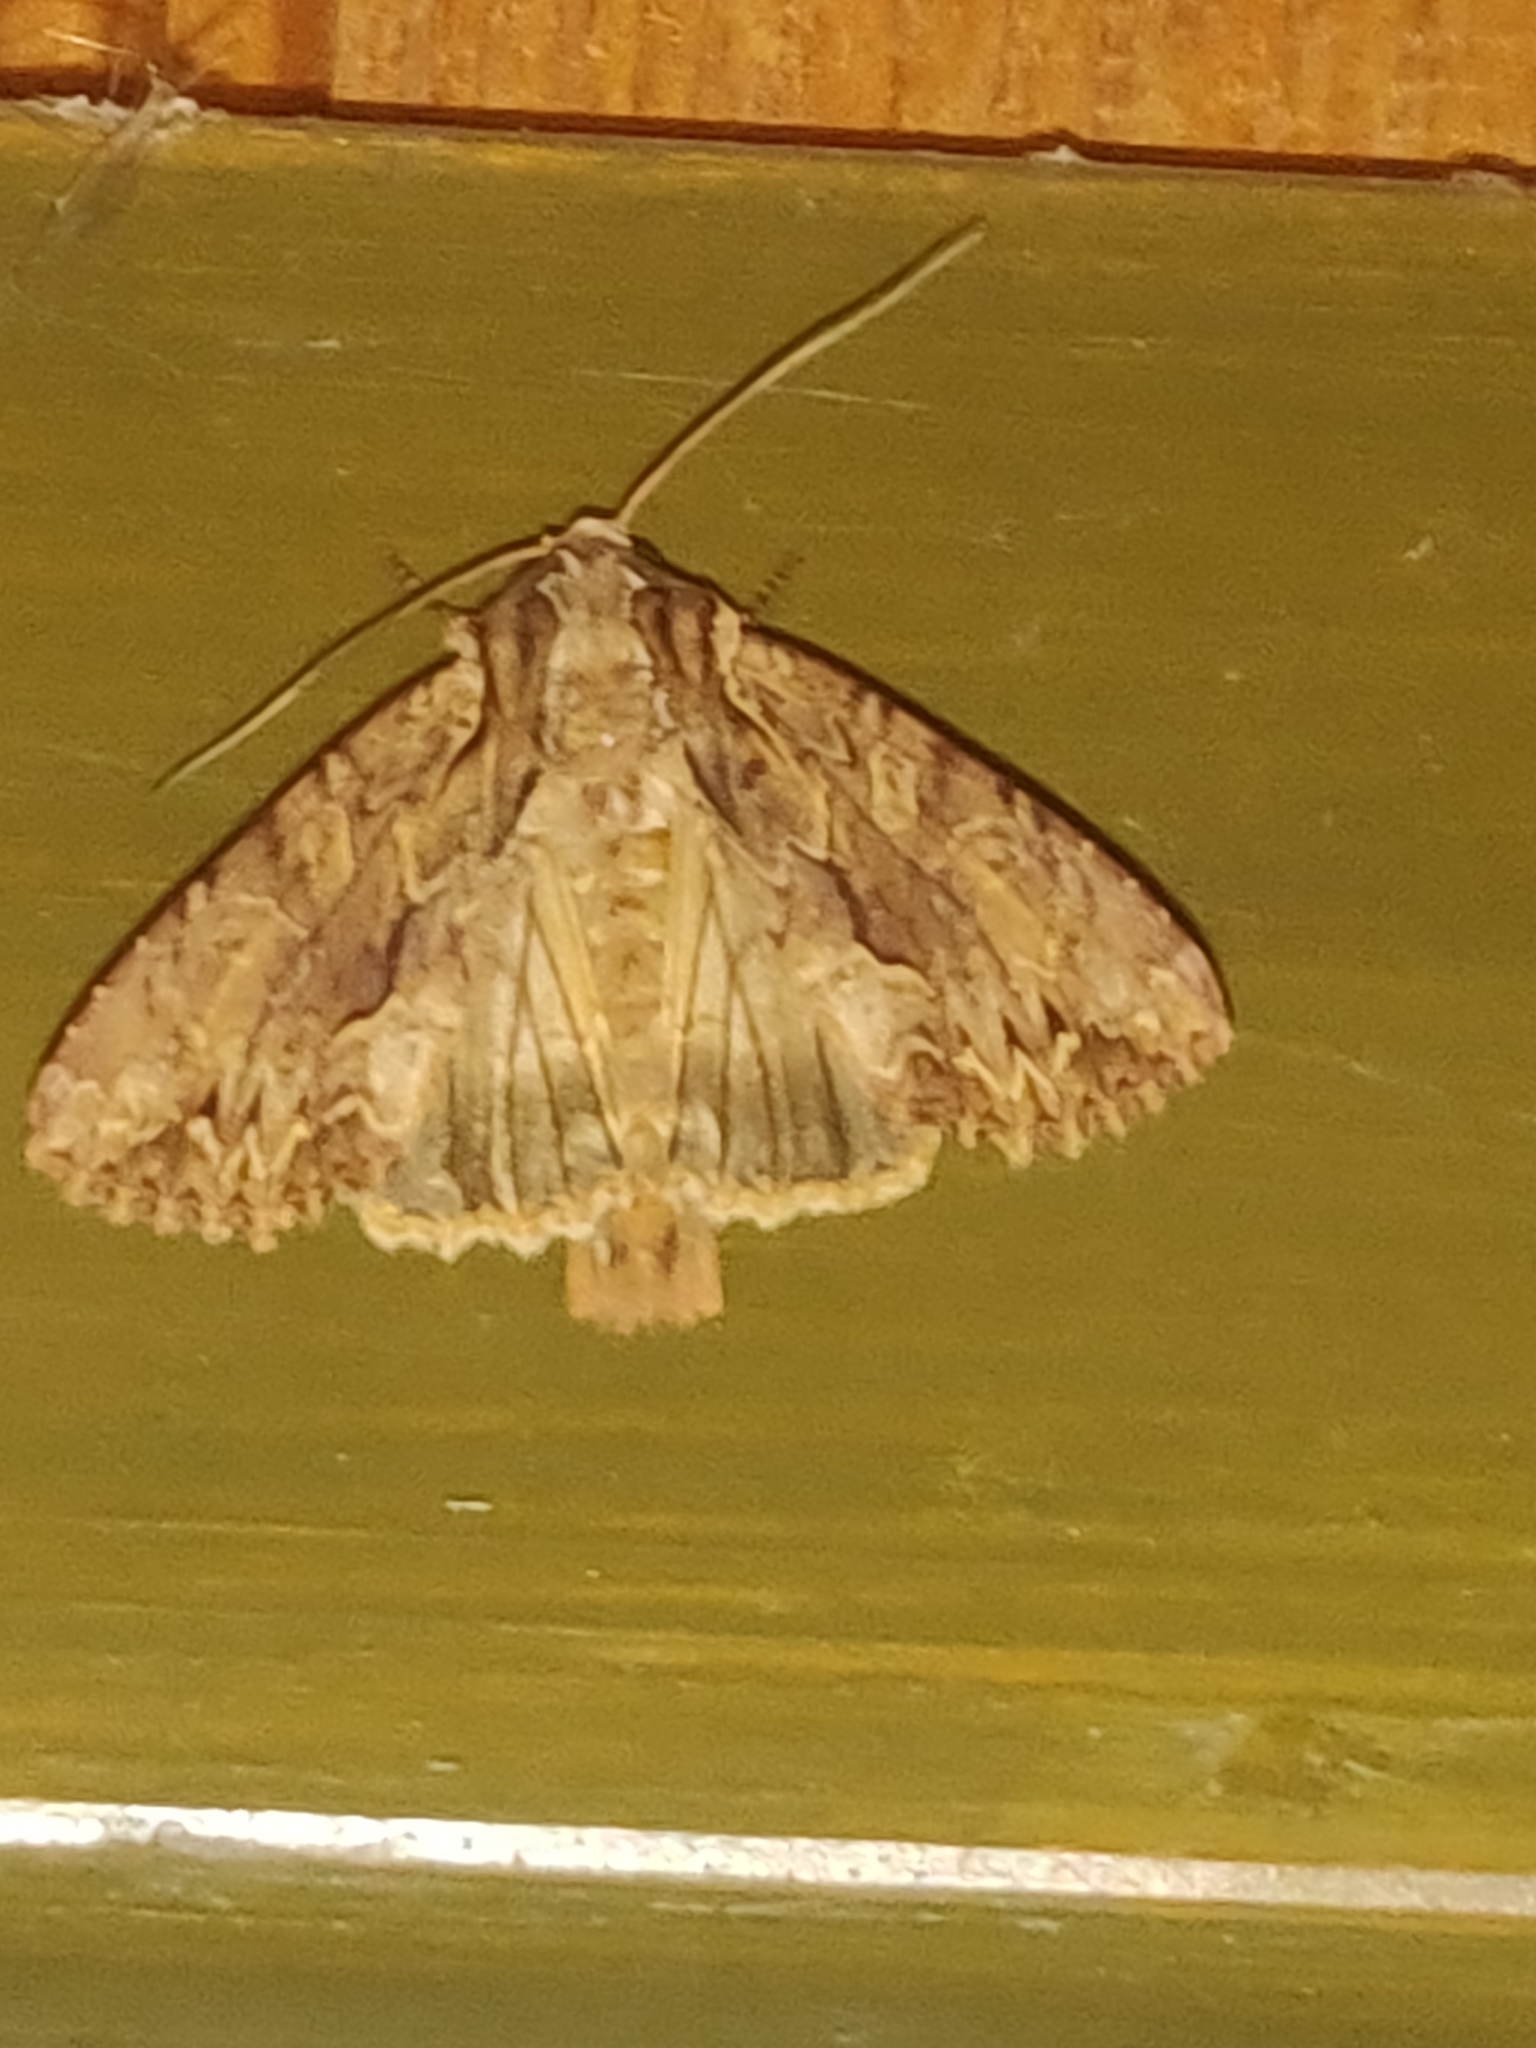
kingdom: Animalia
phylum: Arthropoda
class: Insecta
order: Lepidoptera
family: Noctuidae
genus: Apamea
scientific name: Apamea monoglypha
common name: Dark arches
